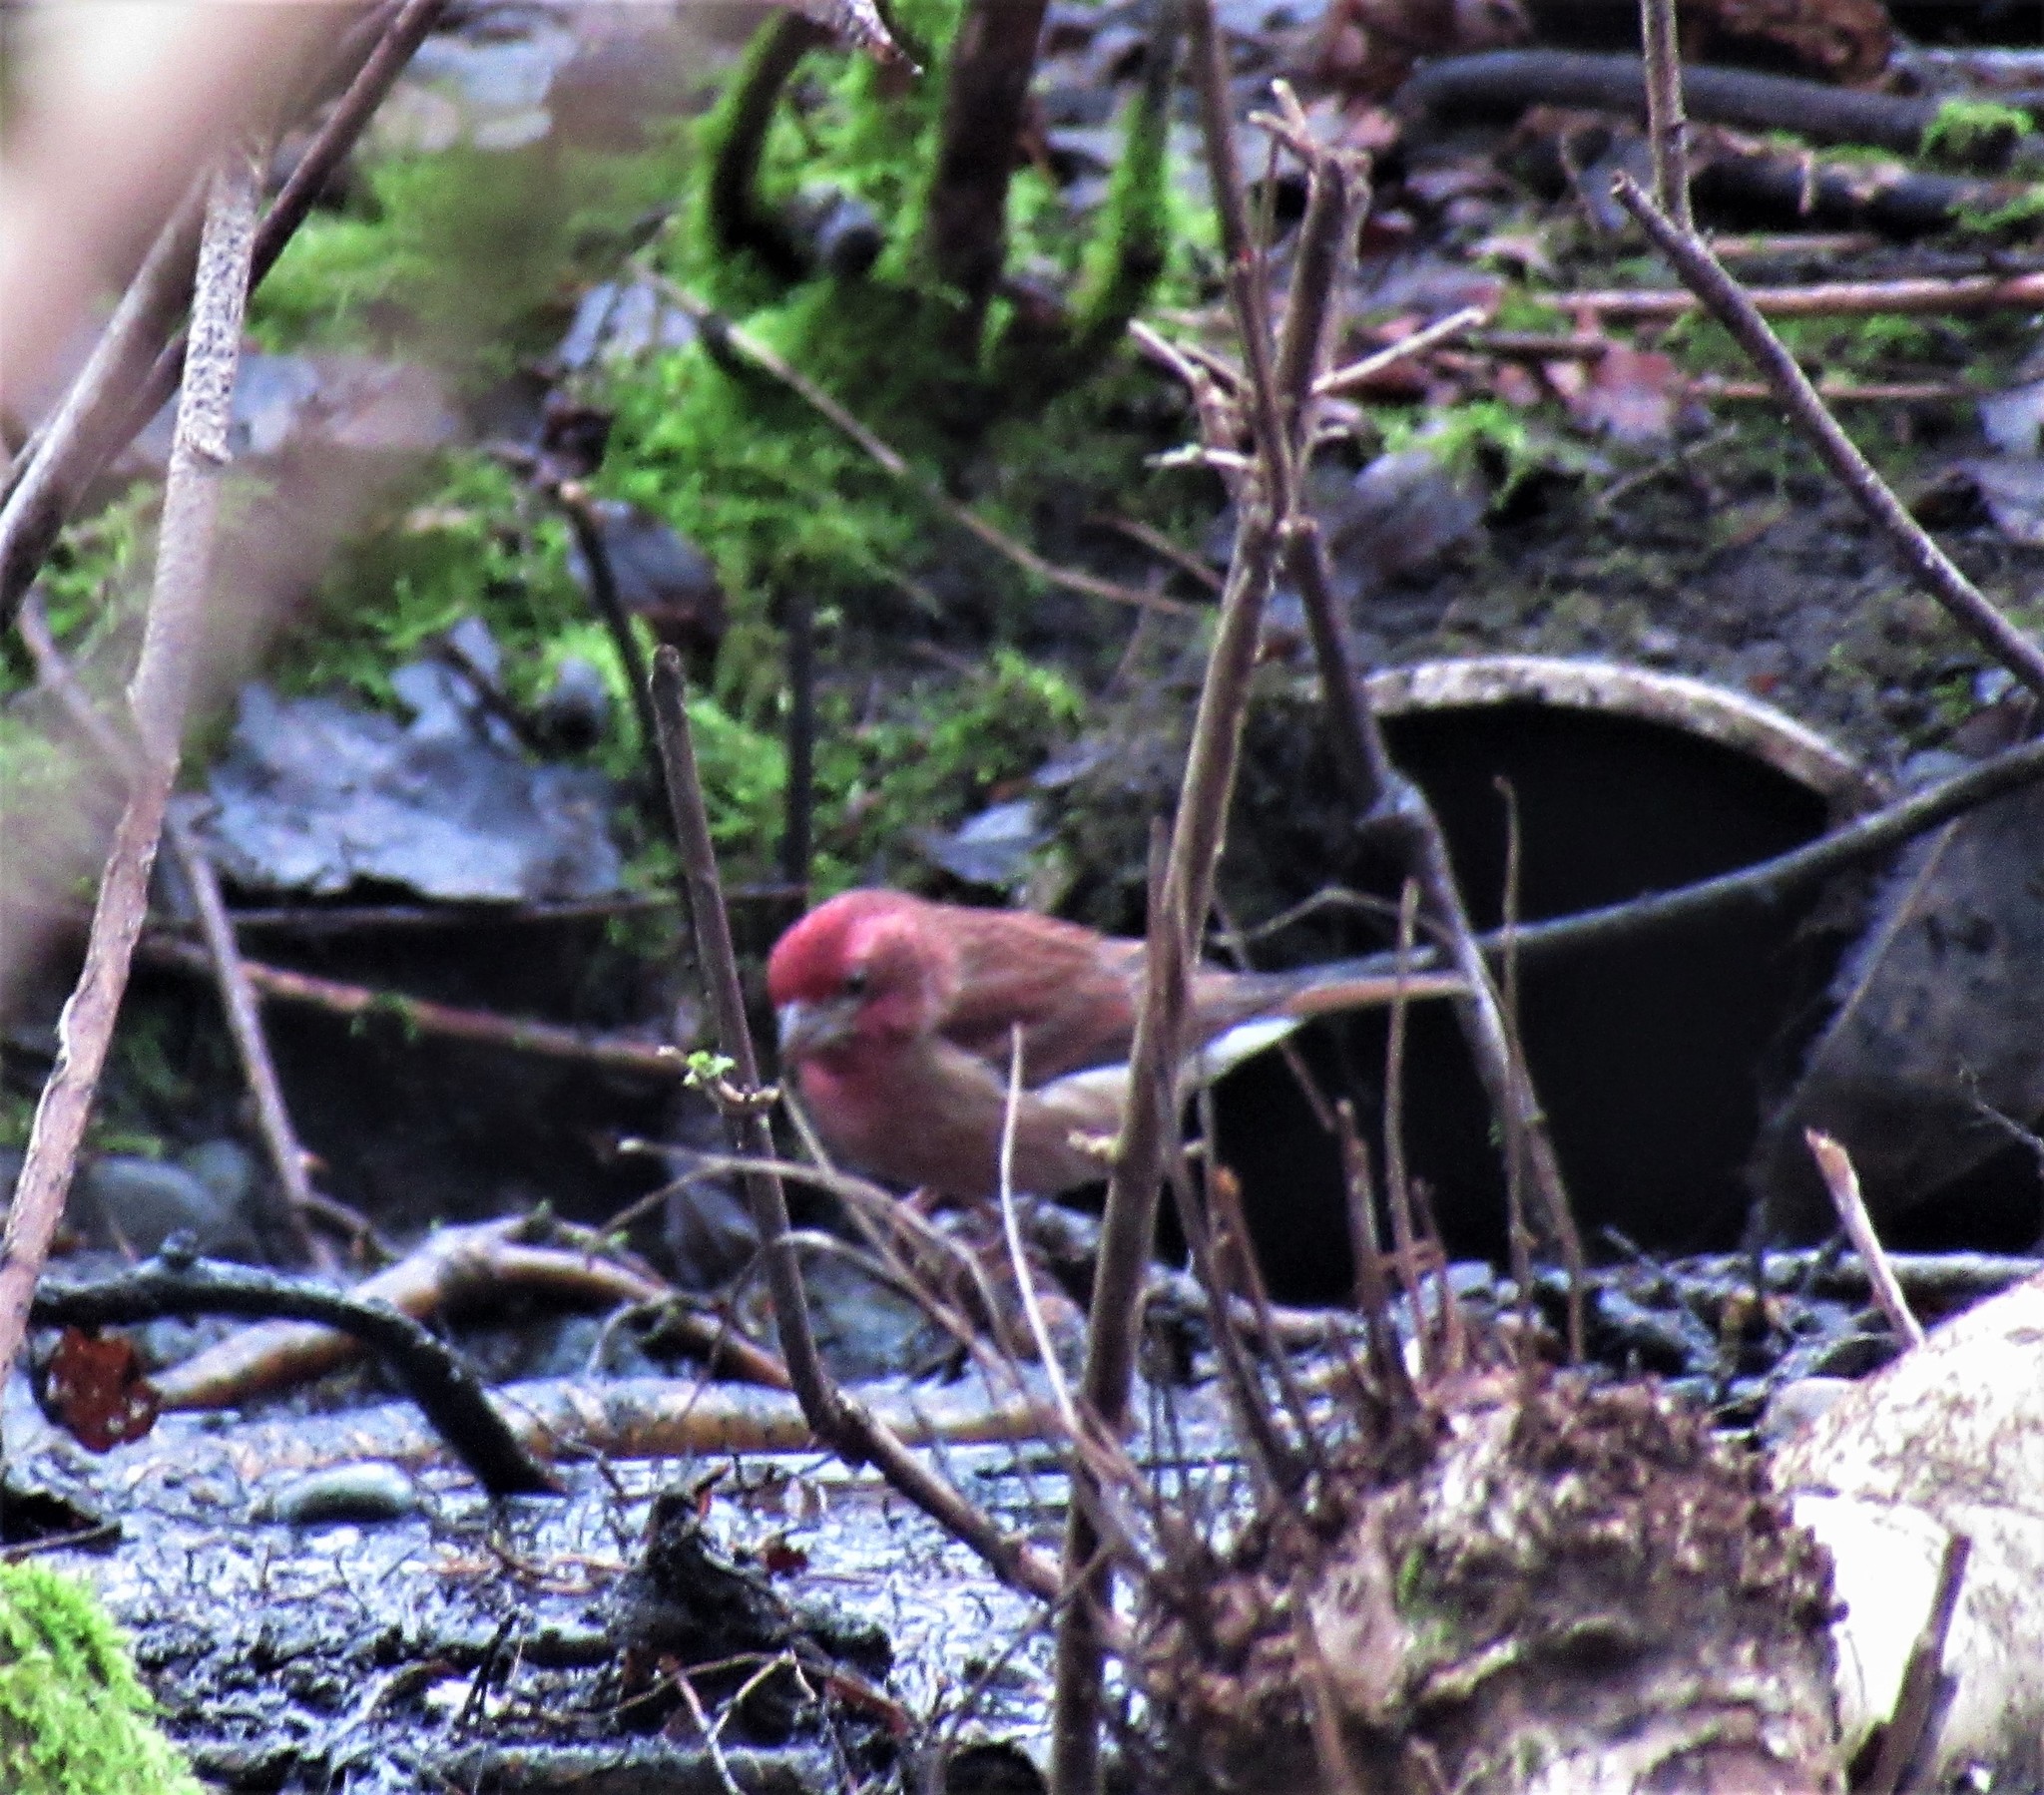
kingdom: Animalia
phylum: Chordata
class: Aves
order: Passeriformes
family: Fringillidae
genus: Haemorhous
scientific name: Haemorhous purpureus
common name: Purple finch
